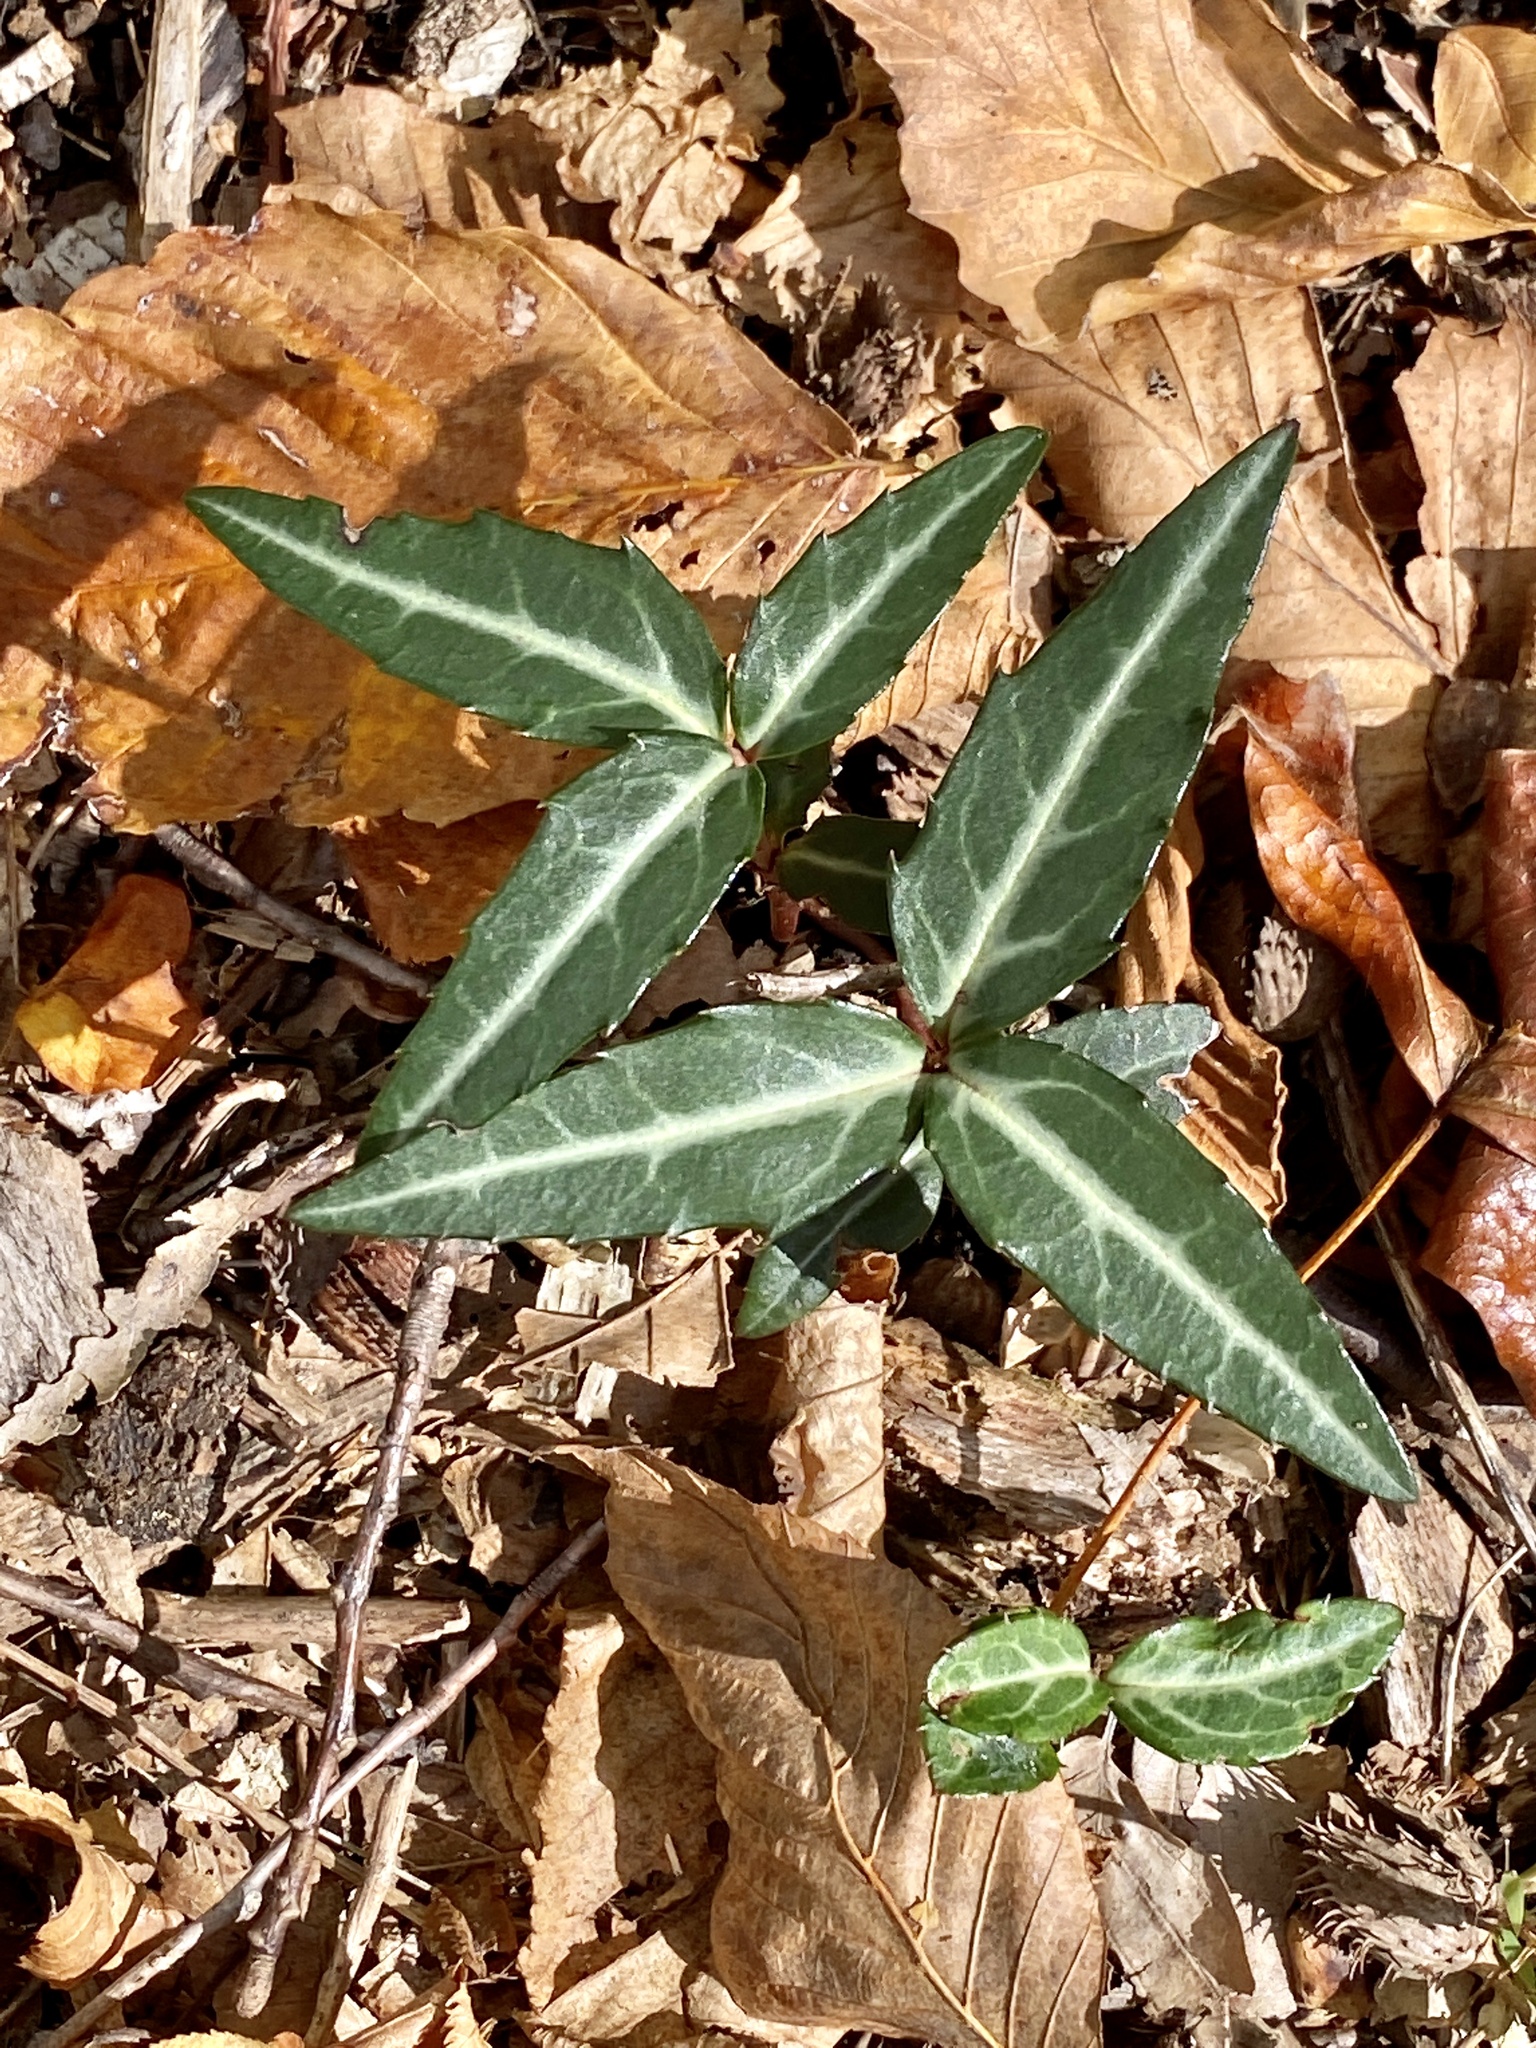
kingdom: Plantae
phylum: Tracheophyta
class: Magnoliopsida
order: Ericales
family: Ericaceae
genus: Chimaphila
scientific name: Chimaphila maculata
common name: Spotted pipsissewa
